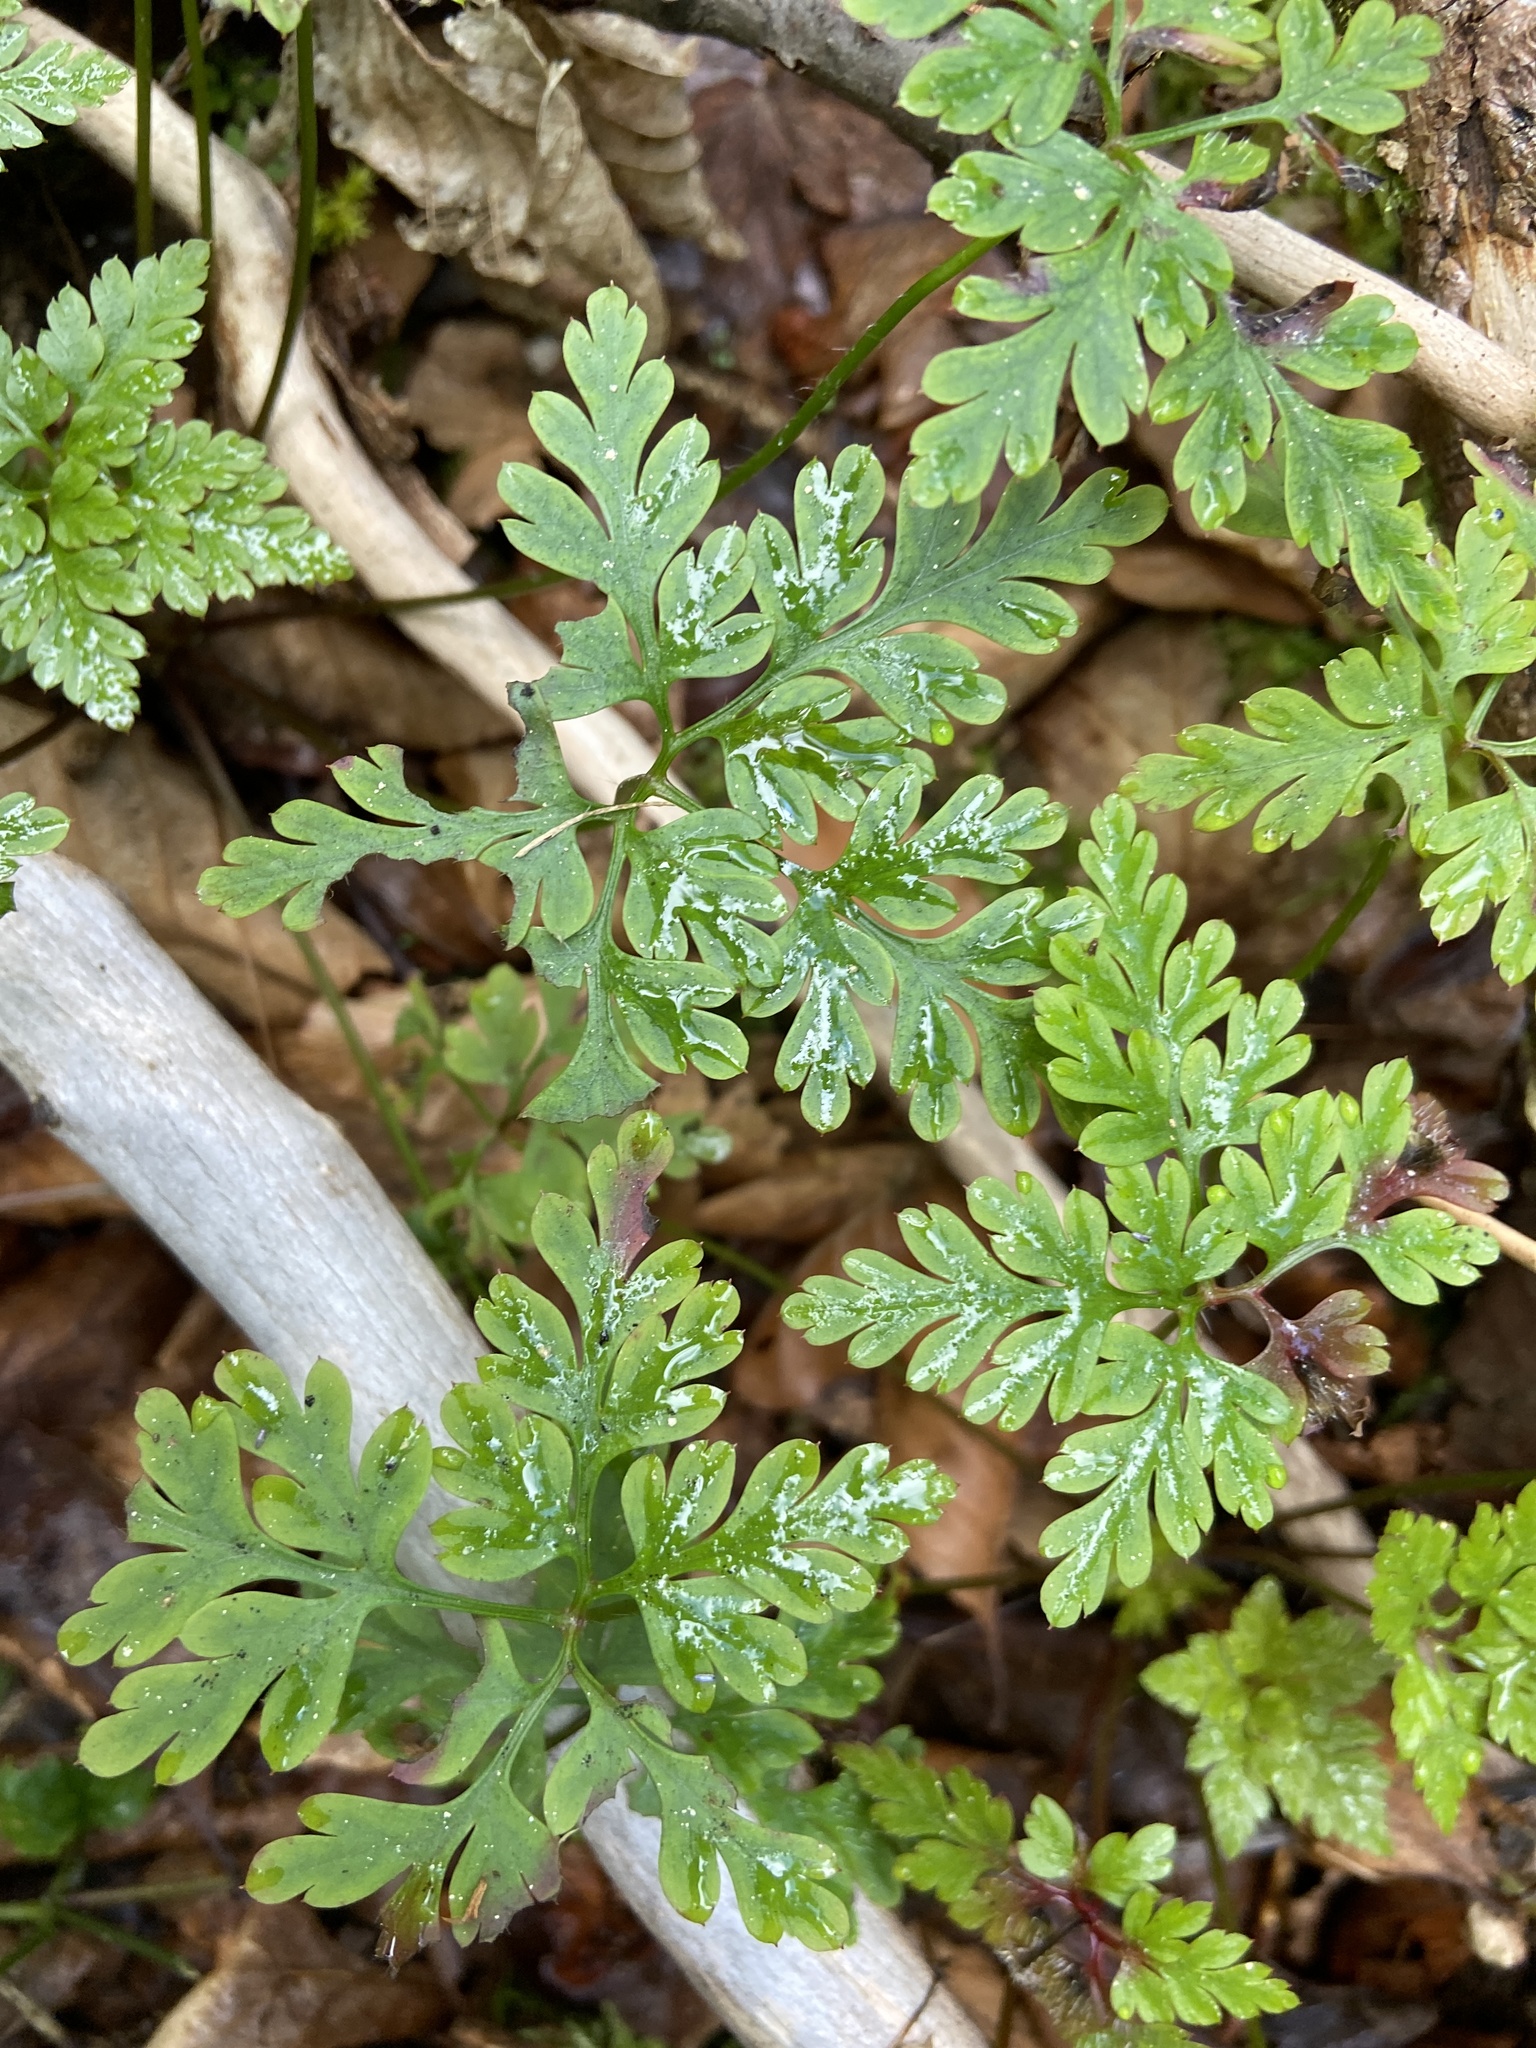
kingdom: Plantae
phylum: Tracheophyta
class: Magnoliopsida
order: Geraniales
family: Geraniaceae
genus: Geranium
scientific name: Geranium robertianum
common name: Herb-robert
